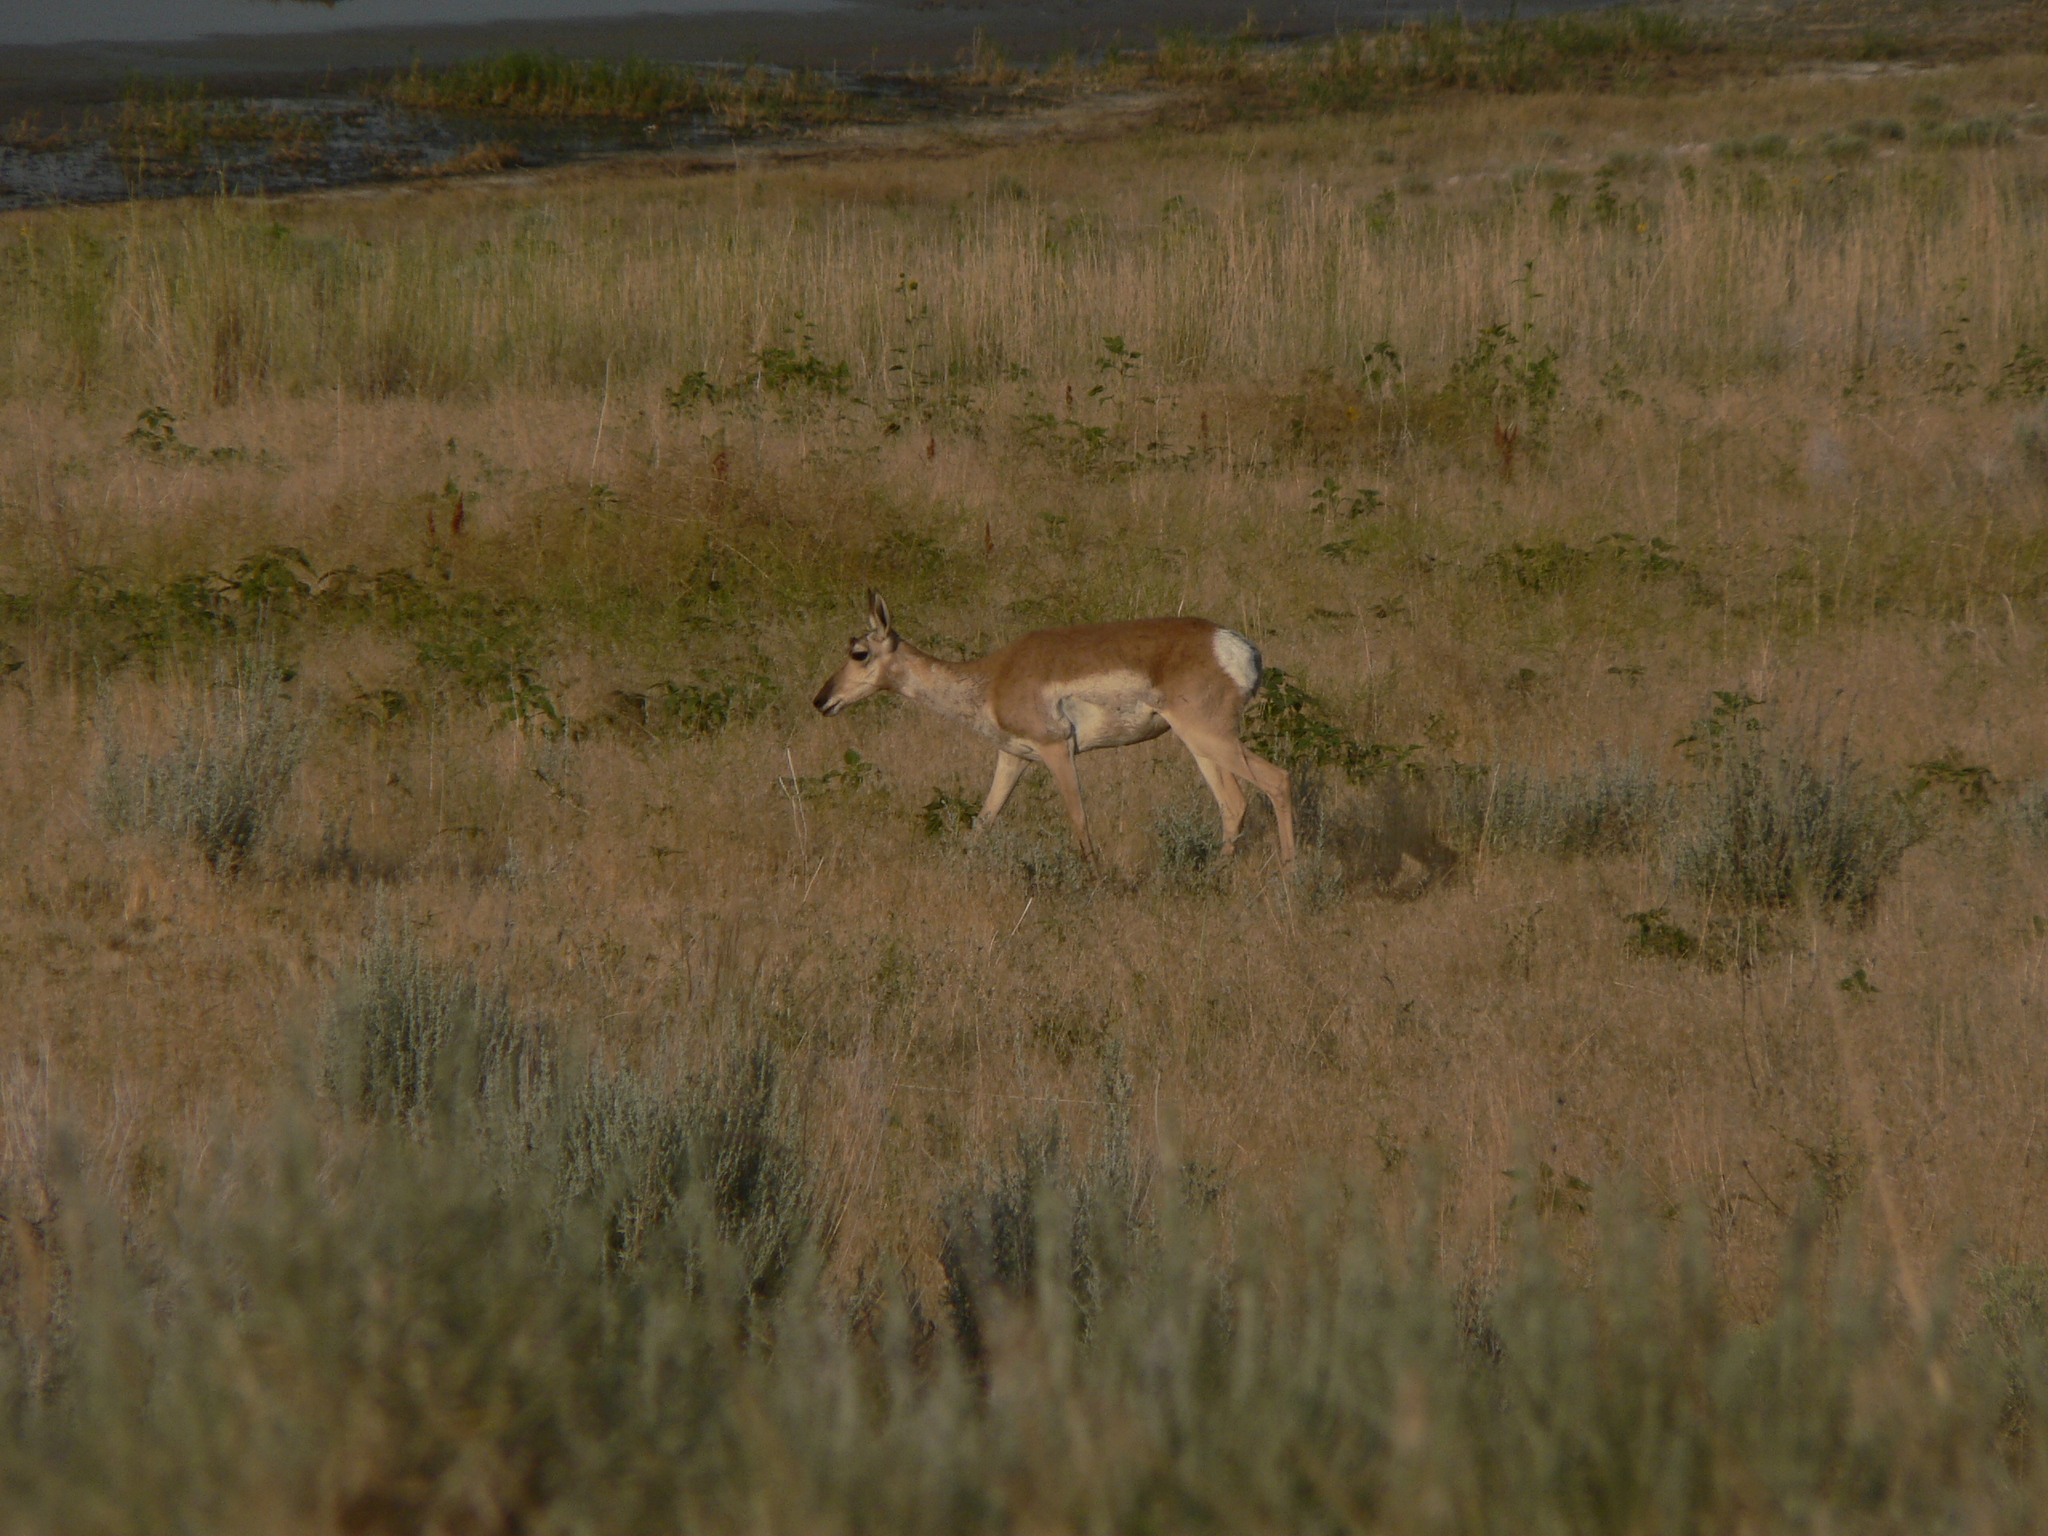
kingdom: Animalia
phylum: Chordata
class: Mammalia
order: Artiodactyla
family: Antilocapridae
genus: Antilocapra
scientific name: Antilocapra americana
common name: Pronghorn
